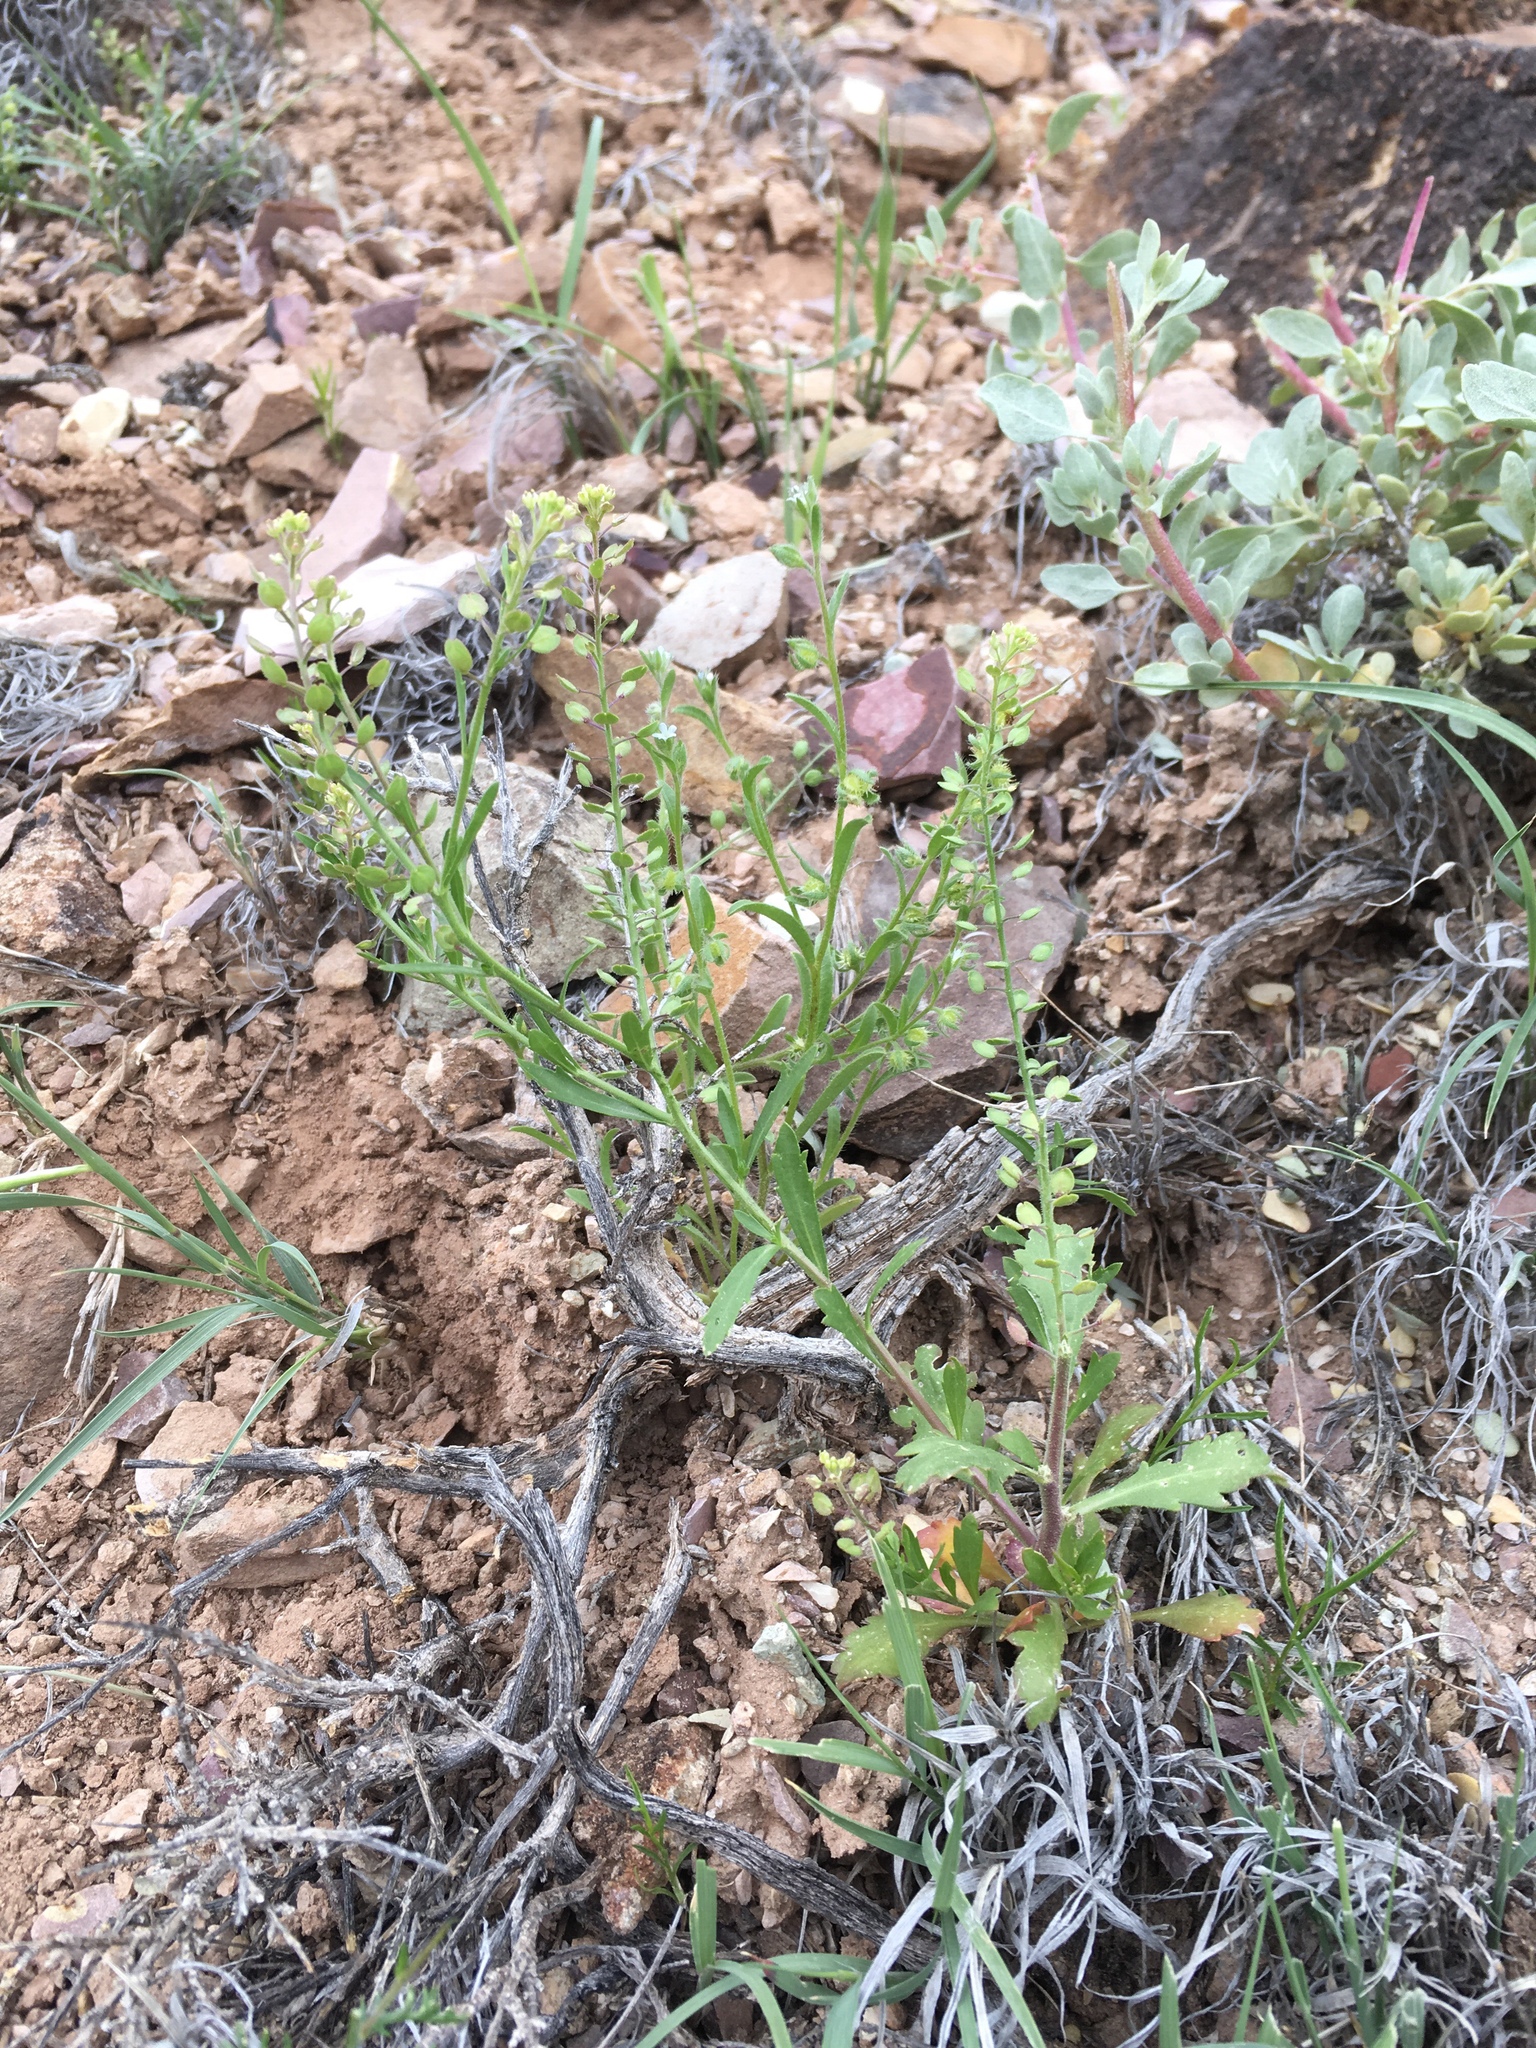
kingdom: Plantae
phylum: Tracheophyta
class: Magnoliopsida
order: Brassicales
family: Brassicaceae
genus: Lepidium
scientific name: Lepidium lasiocarpum
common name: Hairy-pod pepperwort
